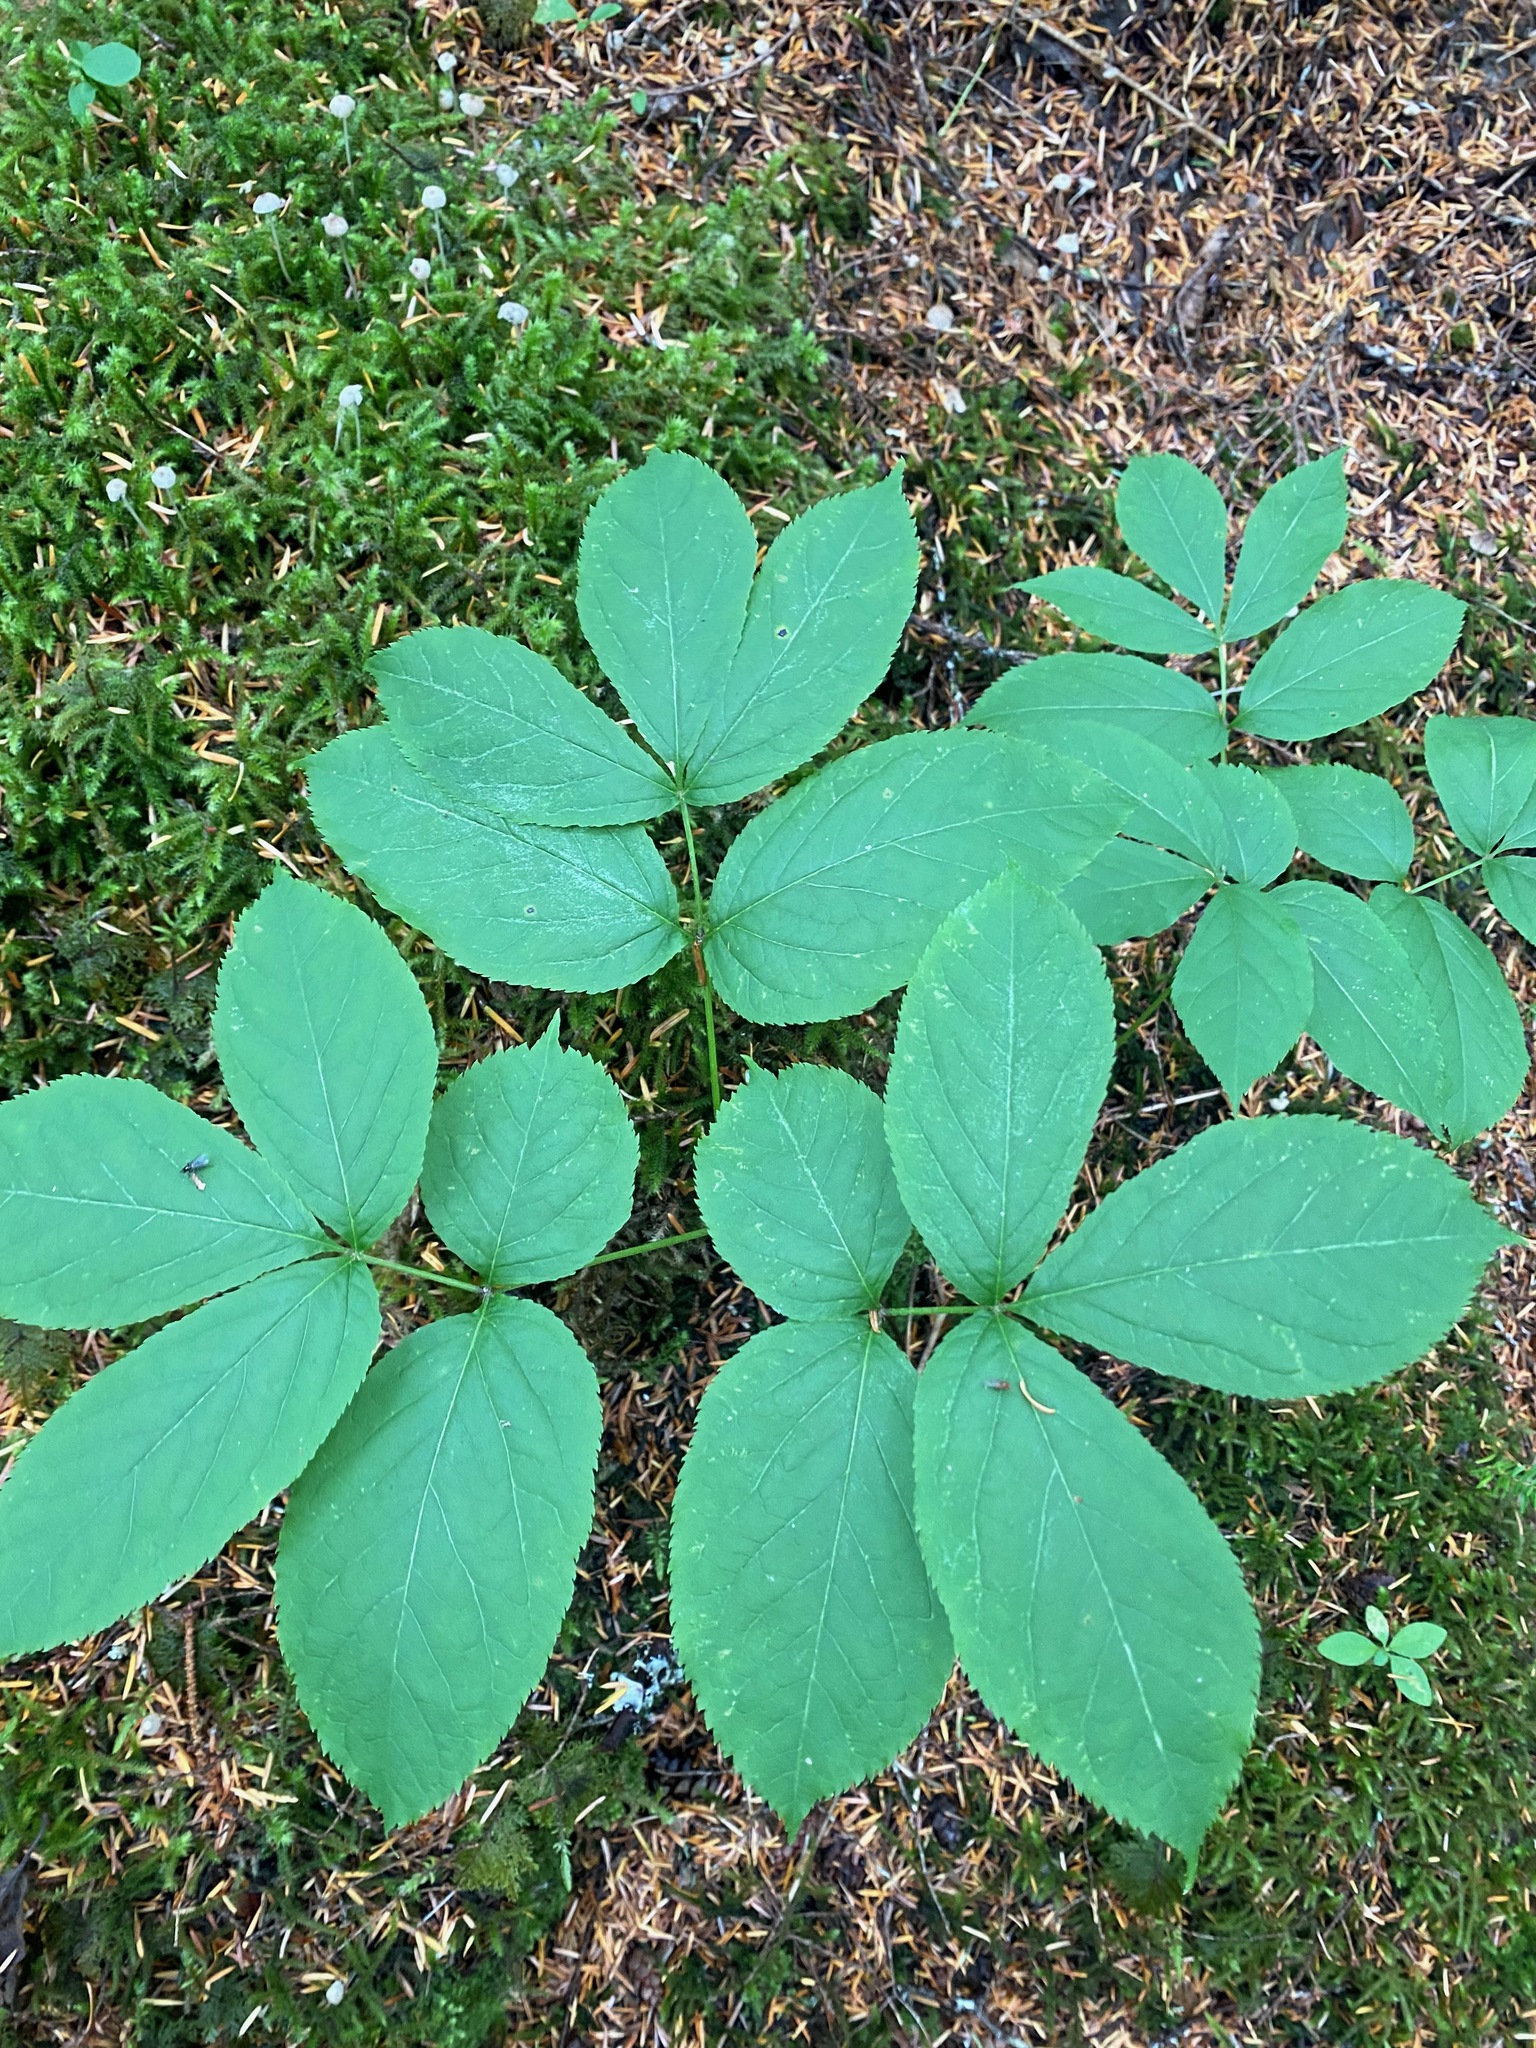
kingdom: Plantae
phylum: Tracheophyta
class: Magnoliopsida
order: Apiales
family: Araliaceae
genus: Aralia
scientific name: Aralia nudicaulis
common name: Wild sarsaparilla
